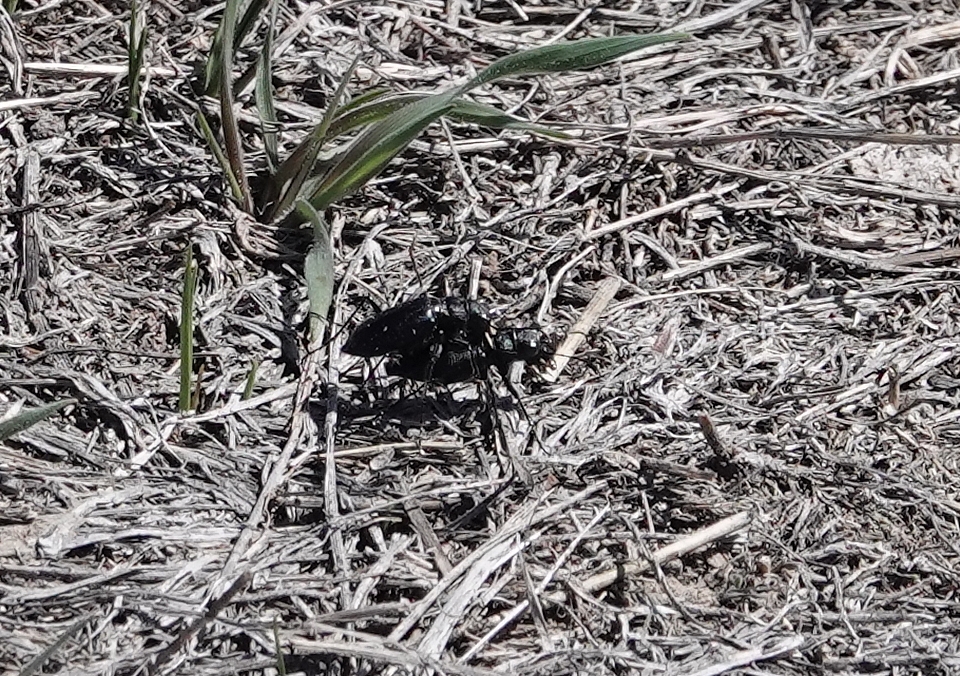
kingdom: Animalia
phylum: Arthropoda
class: Insecta
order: Coleoptera
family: Carabidae
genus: Cicindela
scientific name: Cicindela nebraskana
